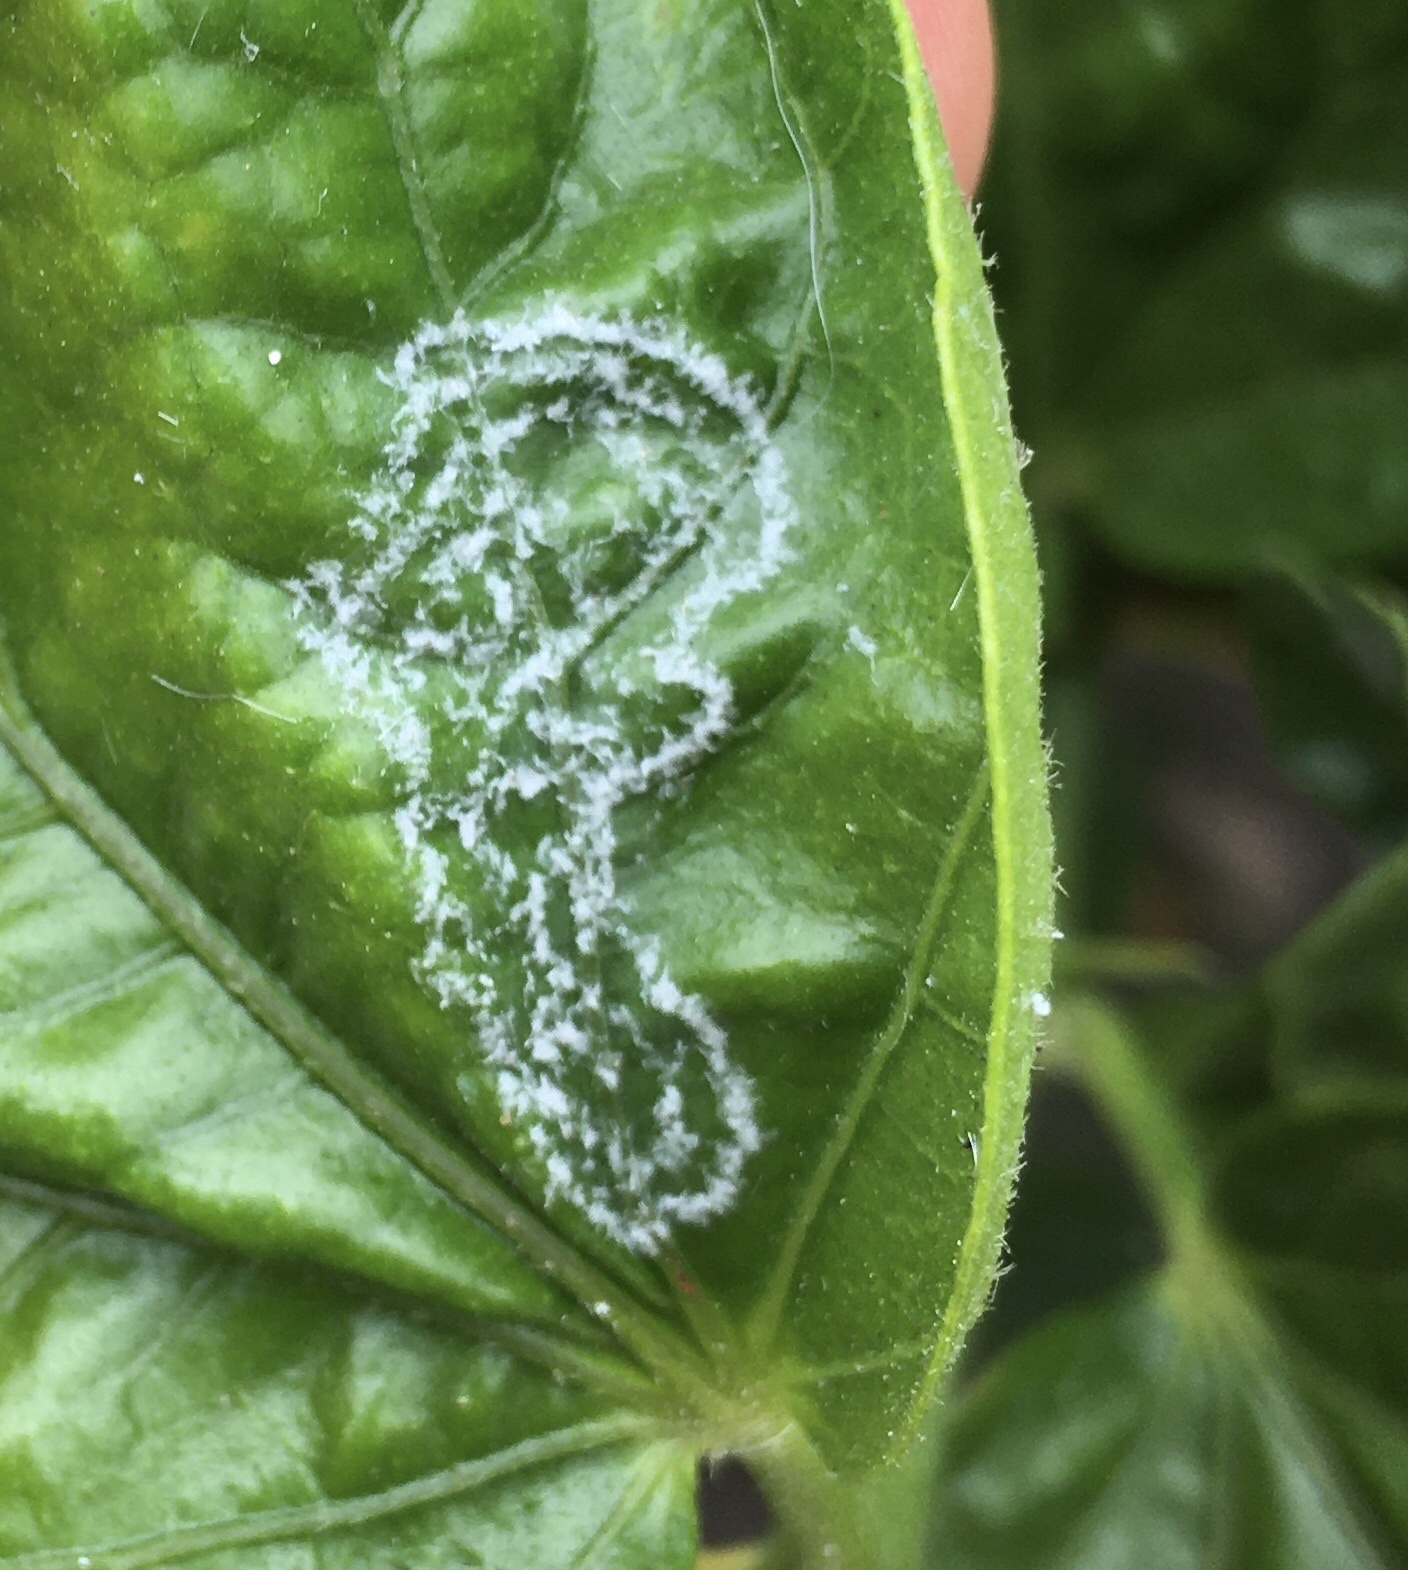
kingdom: Animalia
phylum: Arthropoda
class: Insecta
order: Hemiptera
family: Aleyrodidae
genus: Aleurodicus
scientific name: Aleurodicus dugesii
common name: Giant whitefly
